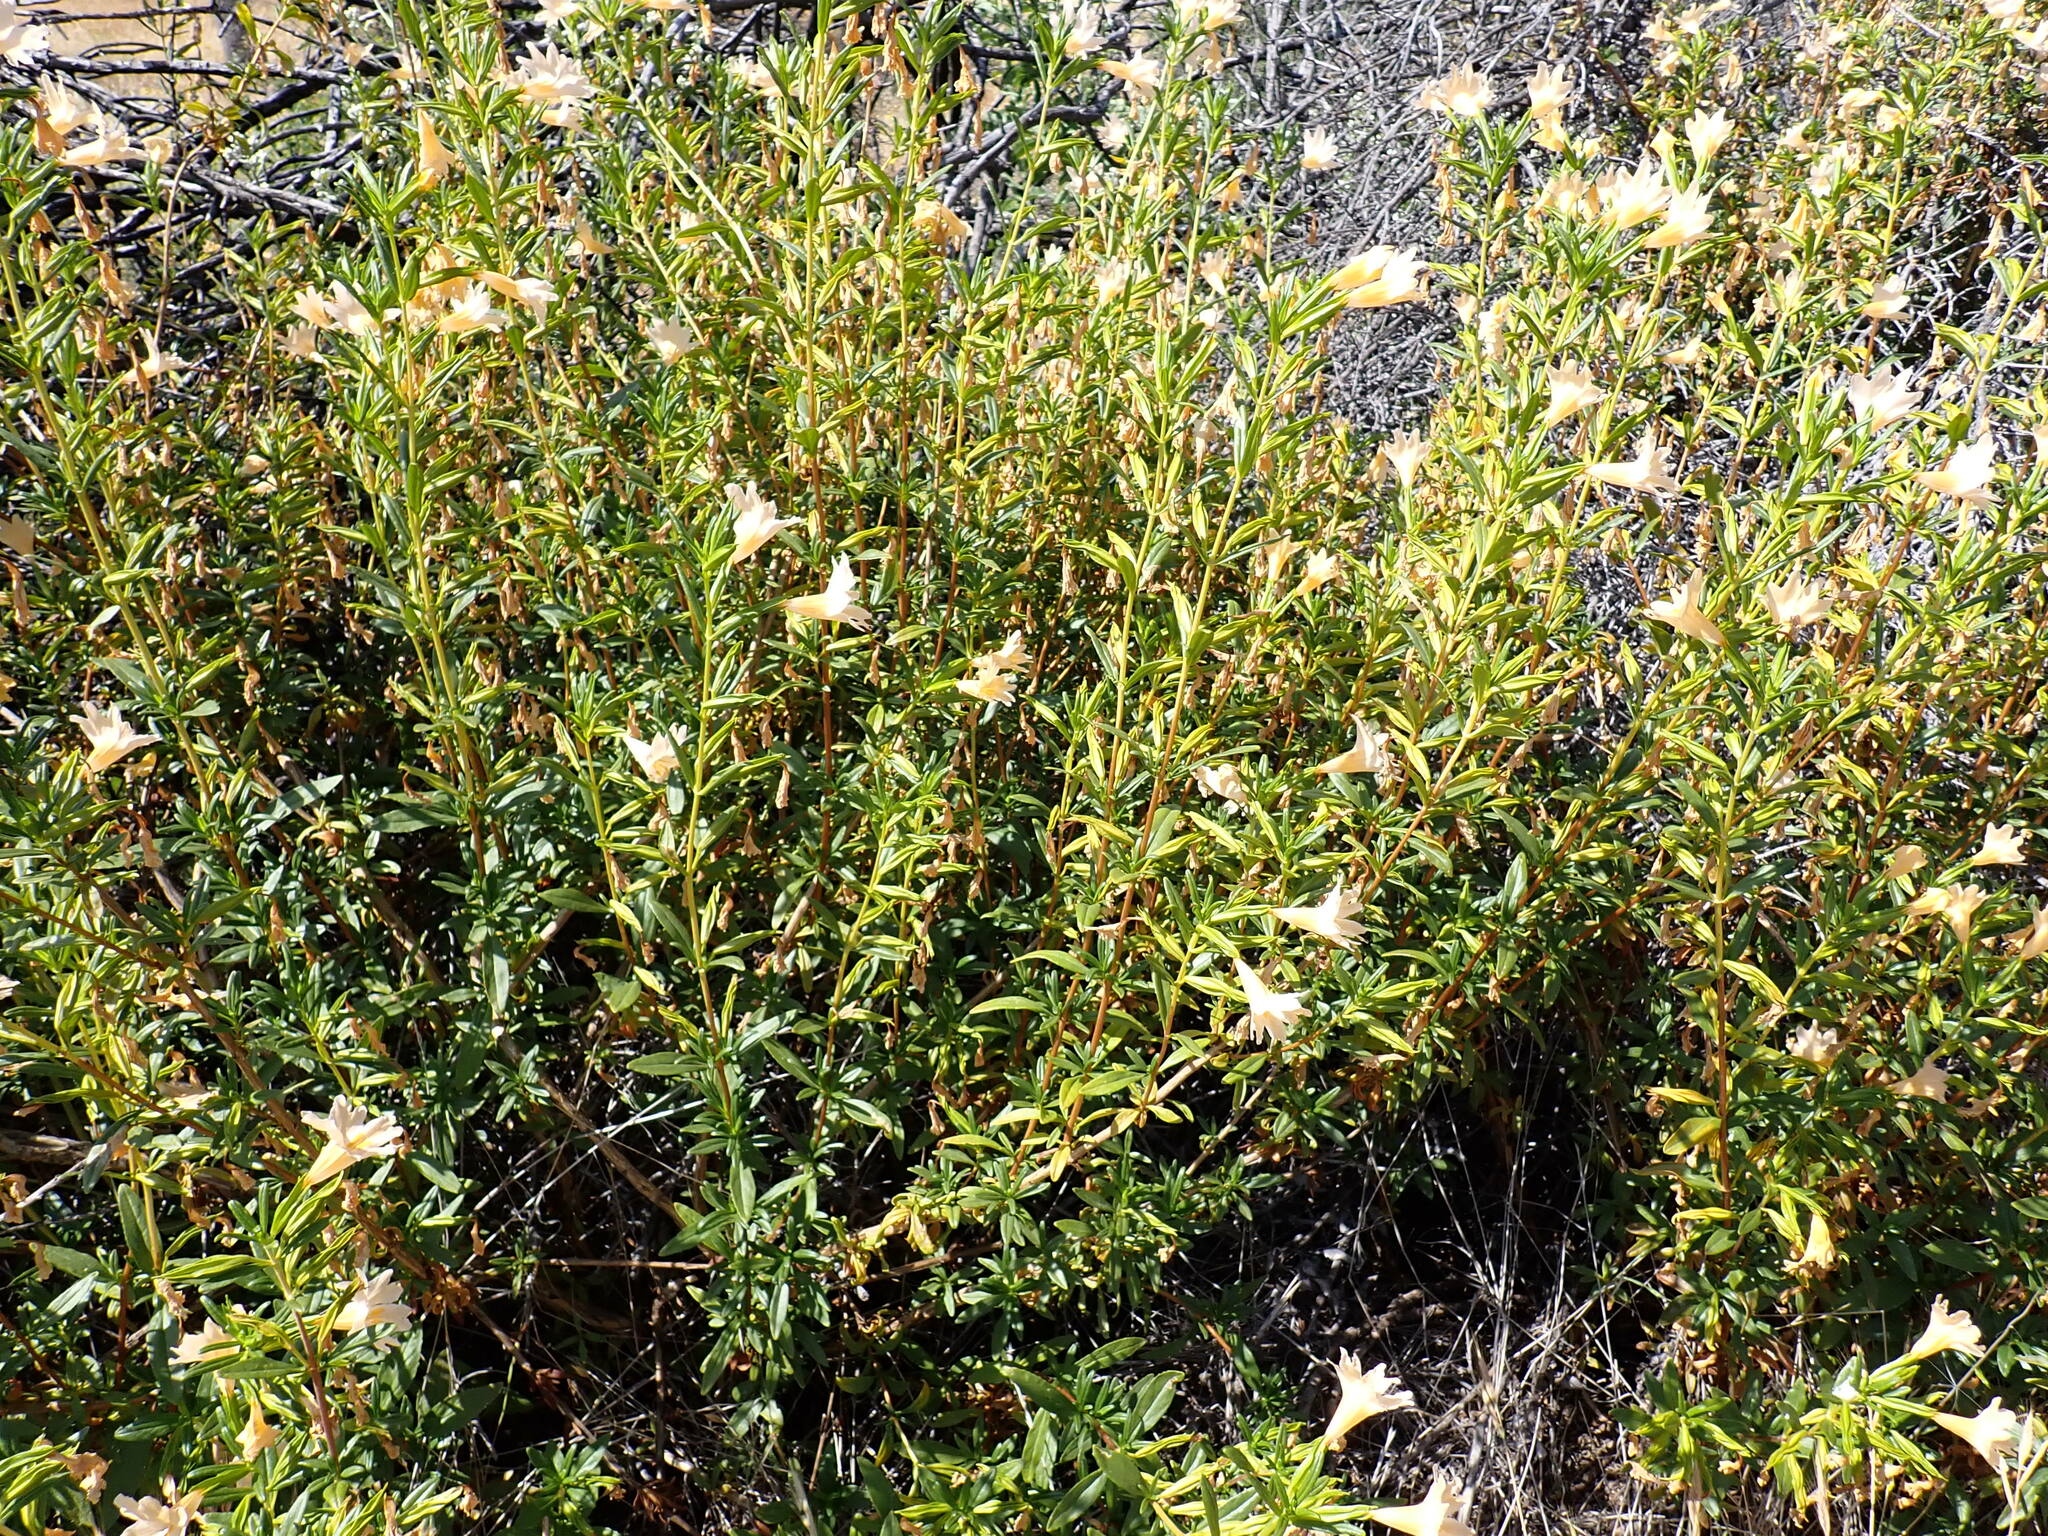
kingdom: Plantae
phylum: Tracheophyta
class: Magnoliopsida
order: Lamiales
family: Phrymaceae
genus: Diplacus
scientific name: Diplacus grandiflorus
